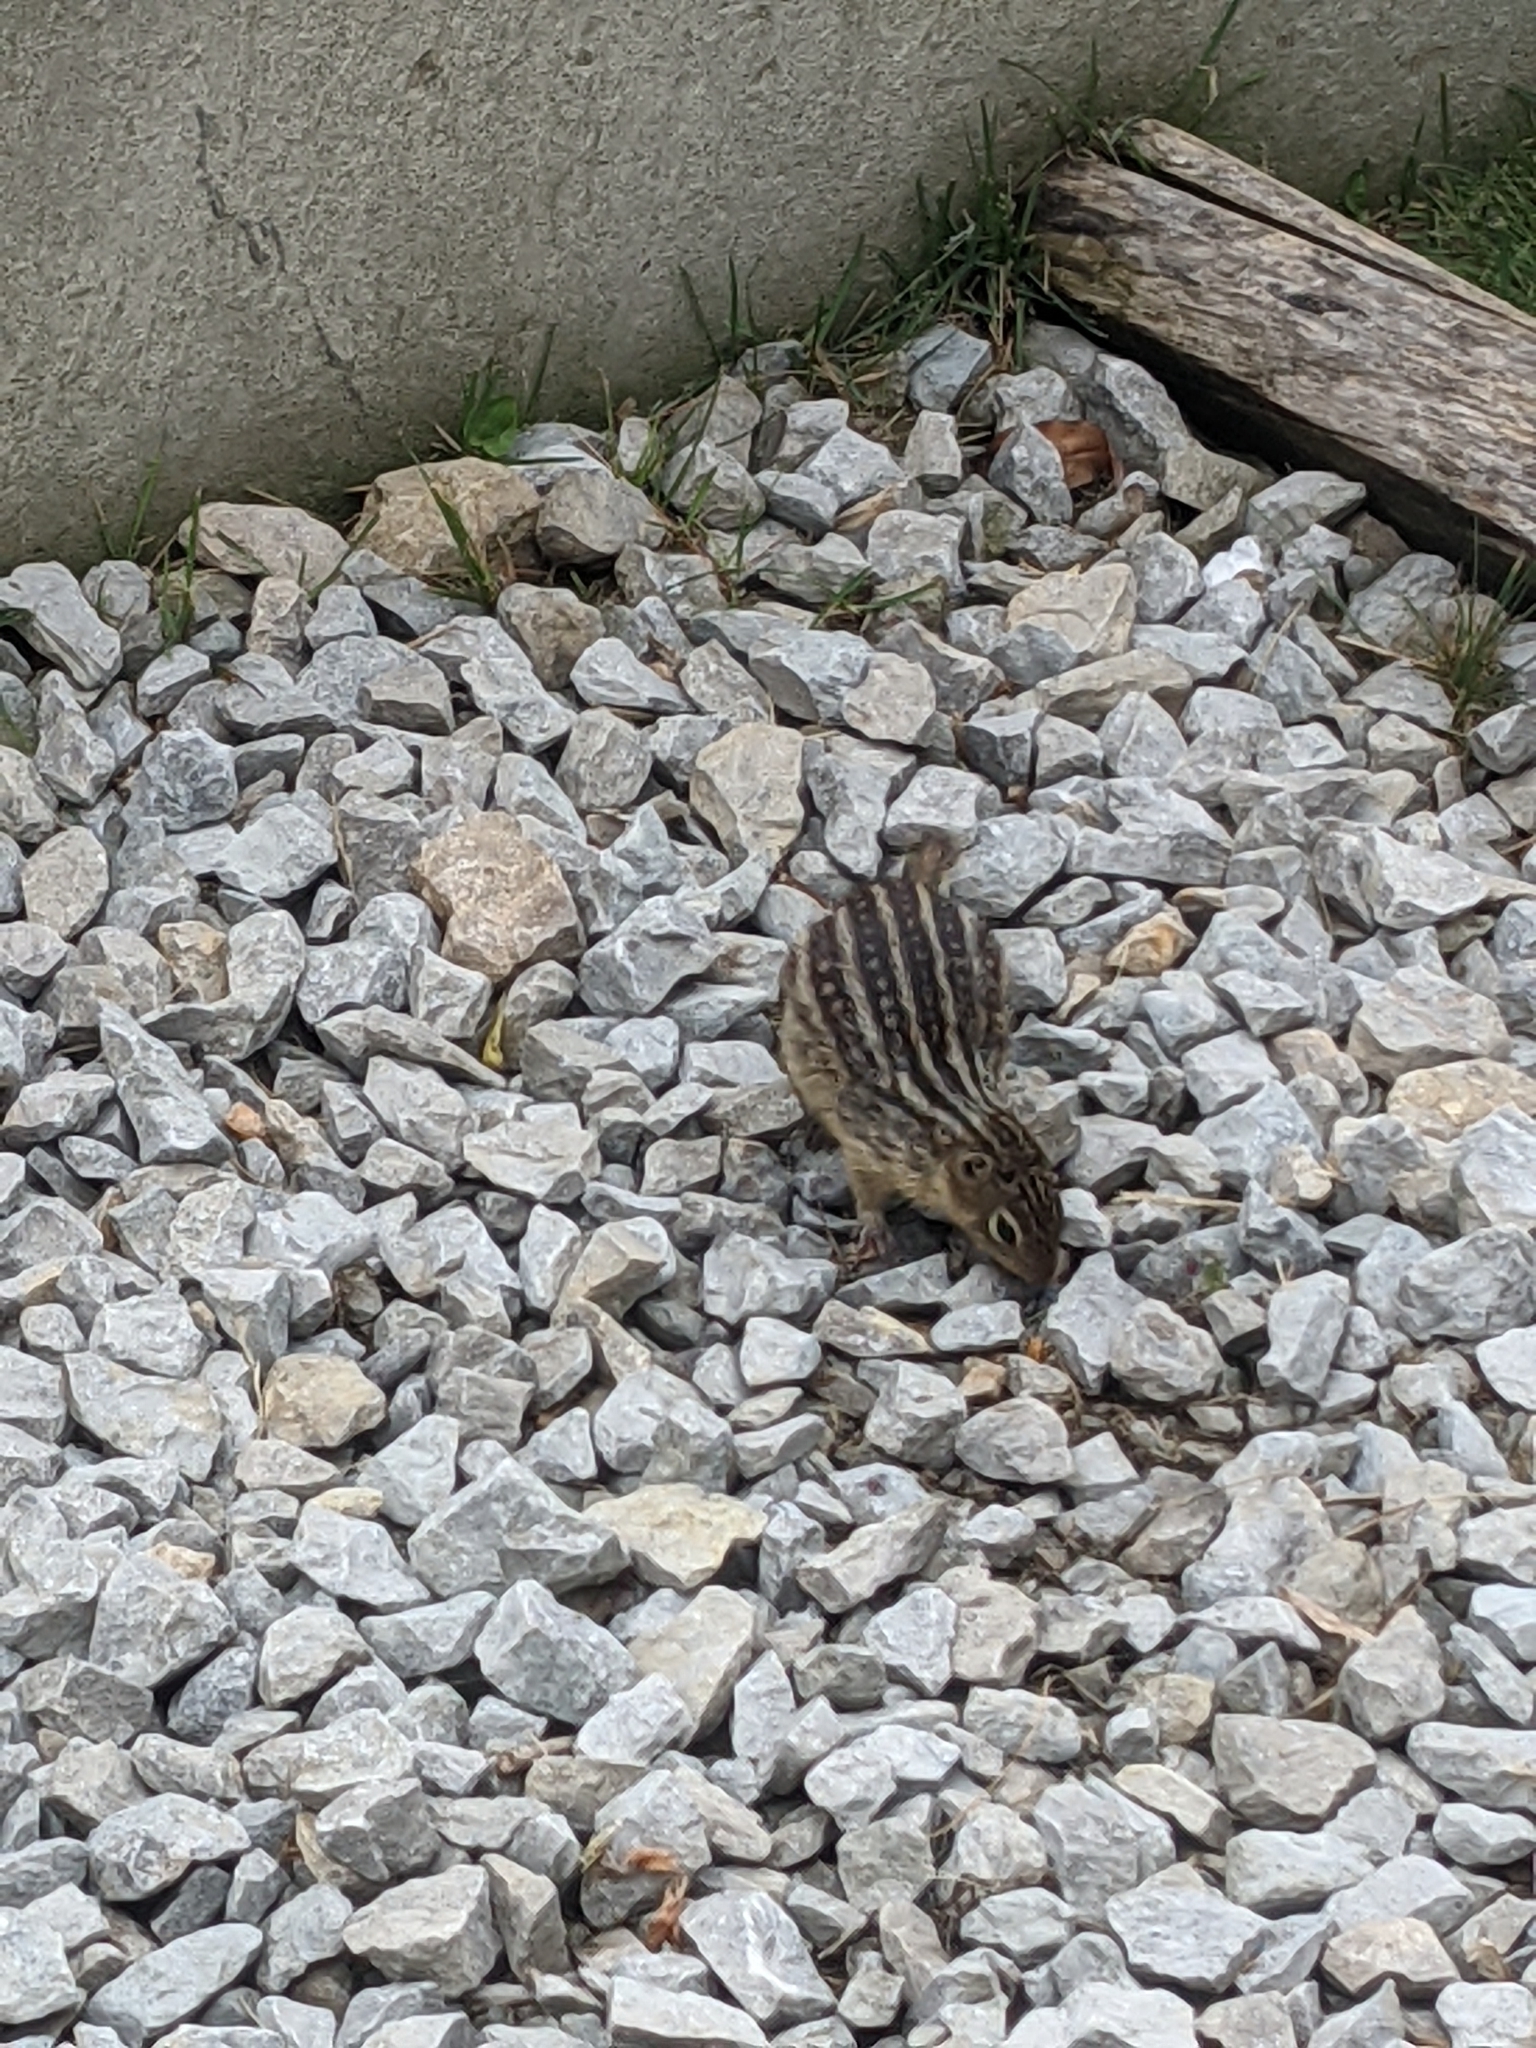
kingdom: Animalia
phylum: Chordata
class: Mammalia
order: Rodentia
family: Sciuridae
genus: Ictidomys
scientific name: Ictidomys tridecemlineatus
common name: Thirteen-lined ground squirrel
